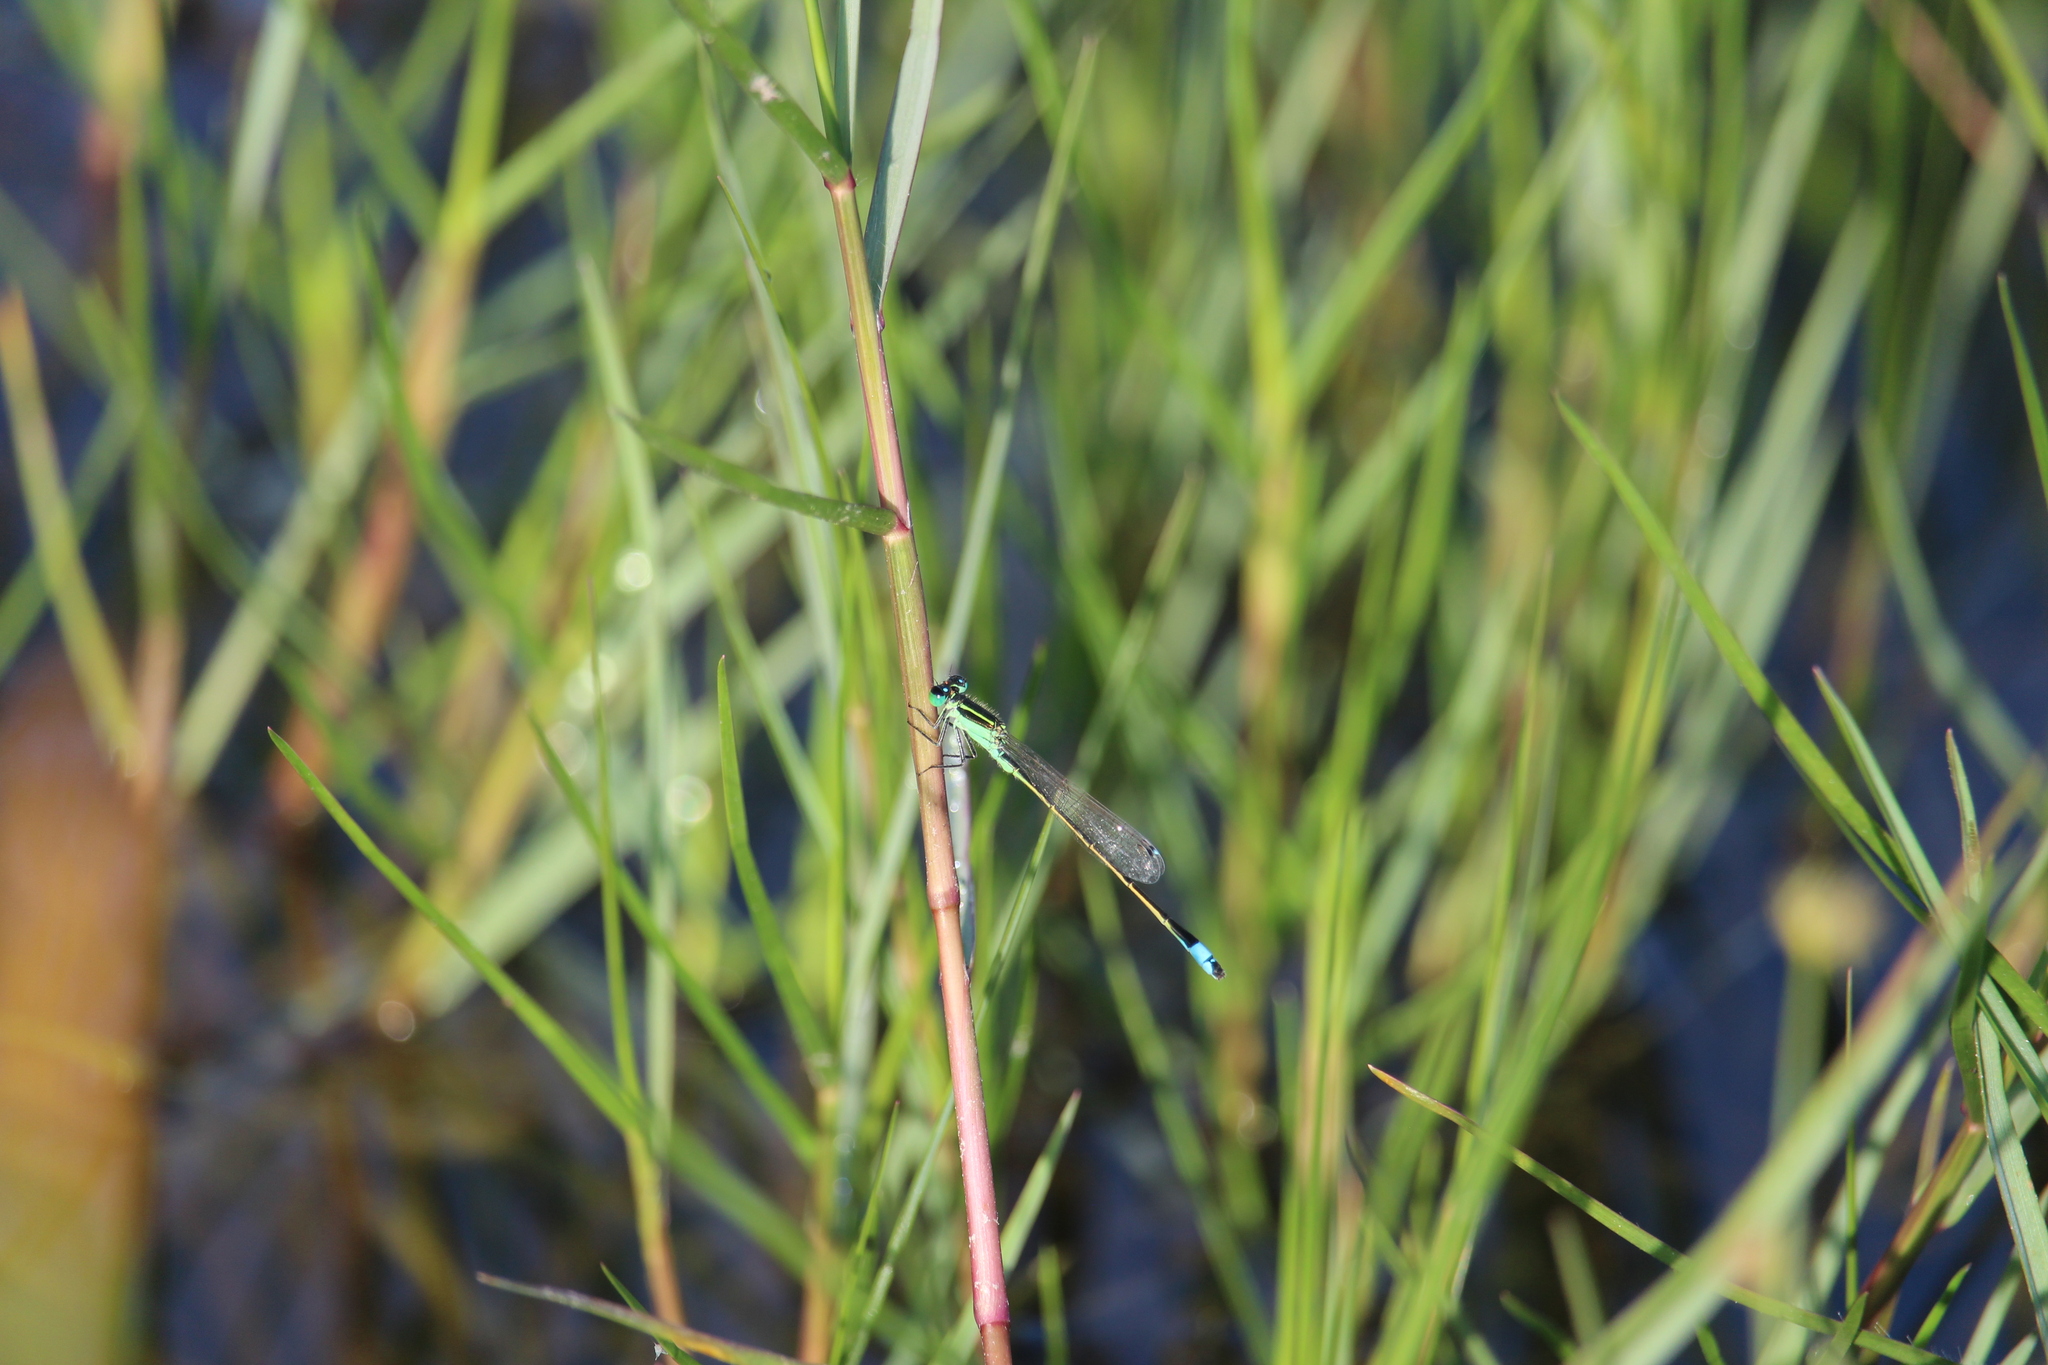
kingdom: Animalia
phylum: Arthropoda
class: Insecta
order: Odonata
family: Coenagrionidae
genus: Ischnura
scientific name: Ischnura ramburii
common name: Rambur's forktail
